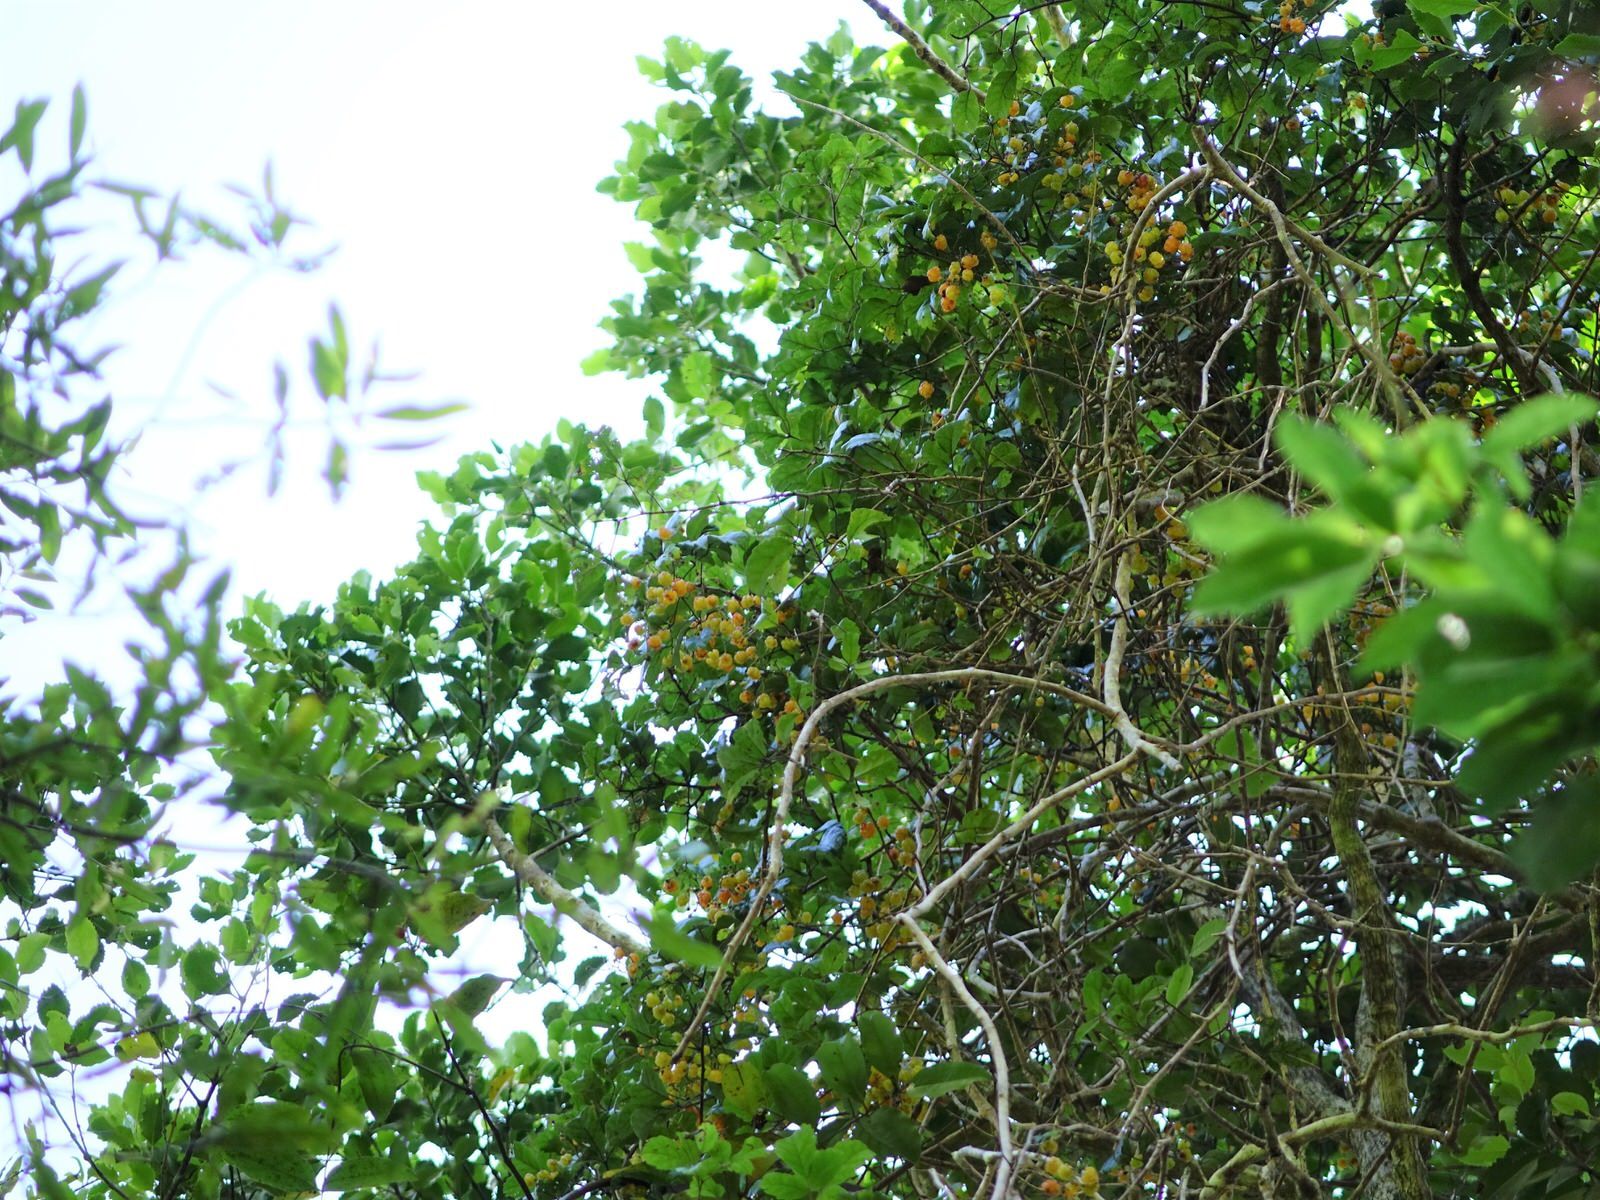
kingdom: Plantae
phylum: Tracheophyta
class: Magnoliopsida
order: Rosales
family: Rosaceae
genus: Rubus
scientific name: Rubus australis
